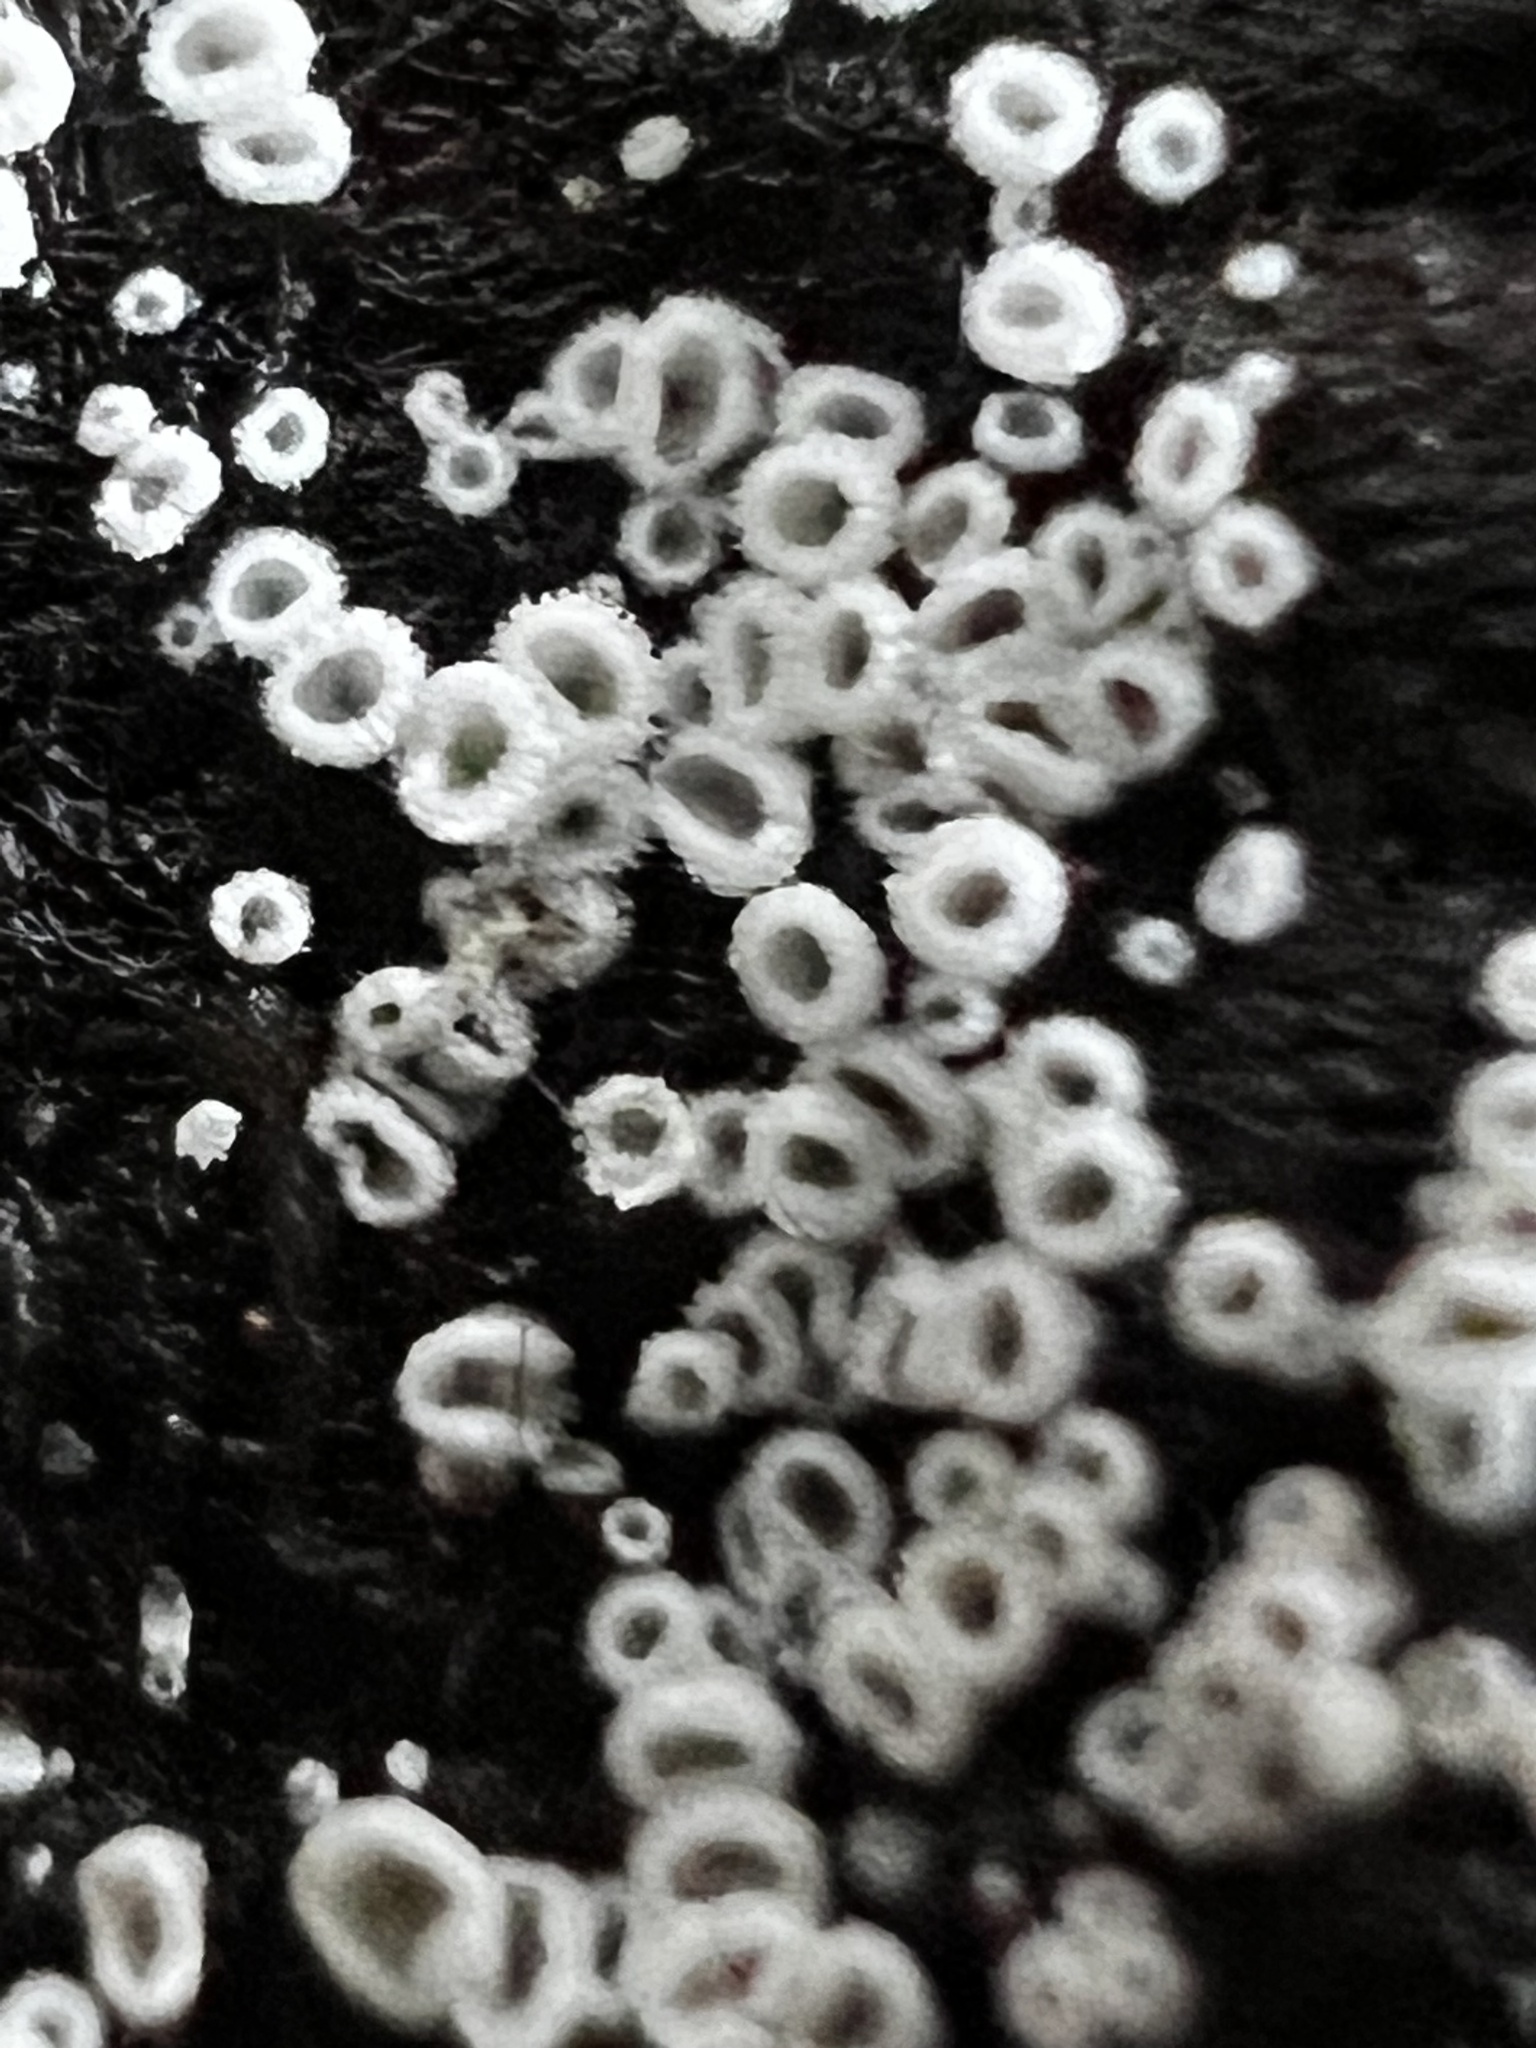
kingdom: Fungi
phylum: Ascomycota
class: Leotiomycetes
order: Helotiales
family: Lachnaceae
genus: Lachnum
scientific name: Lachnum virgineum
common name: Snowy disco
